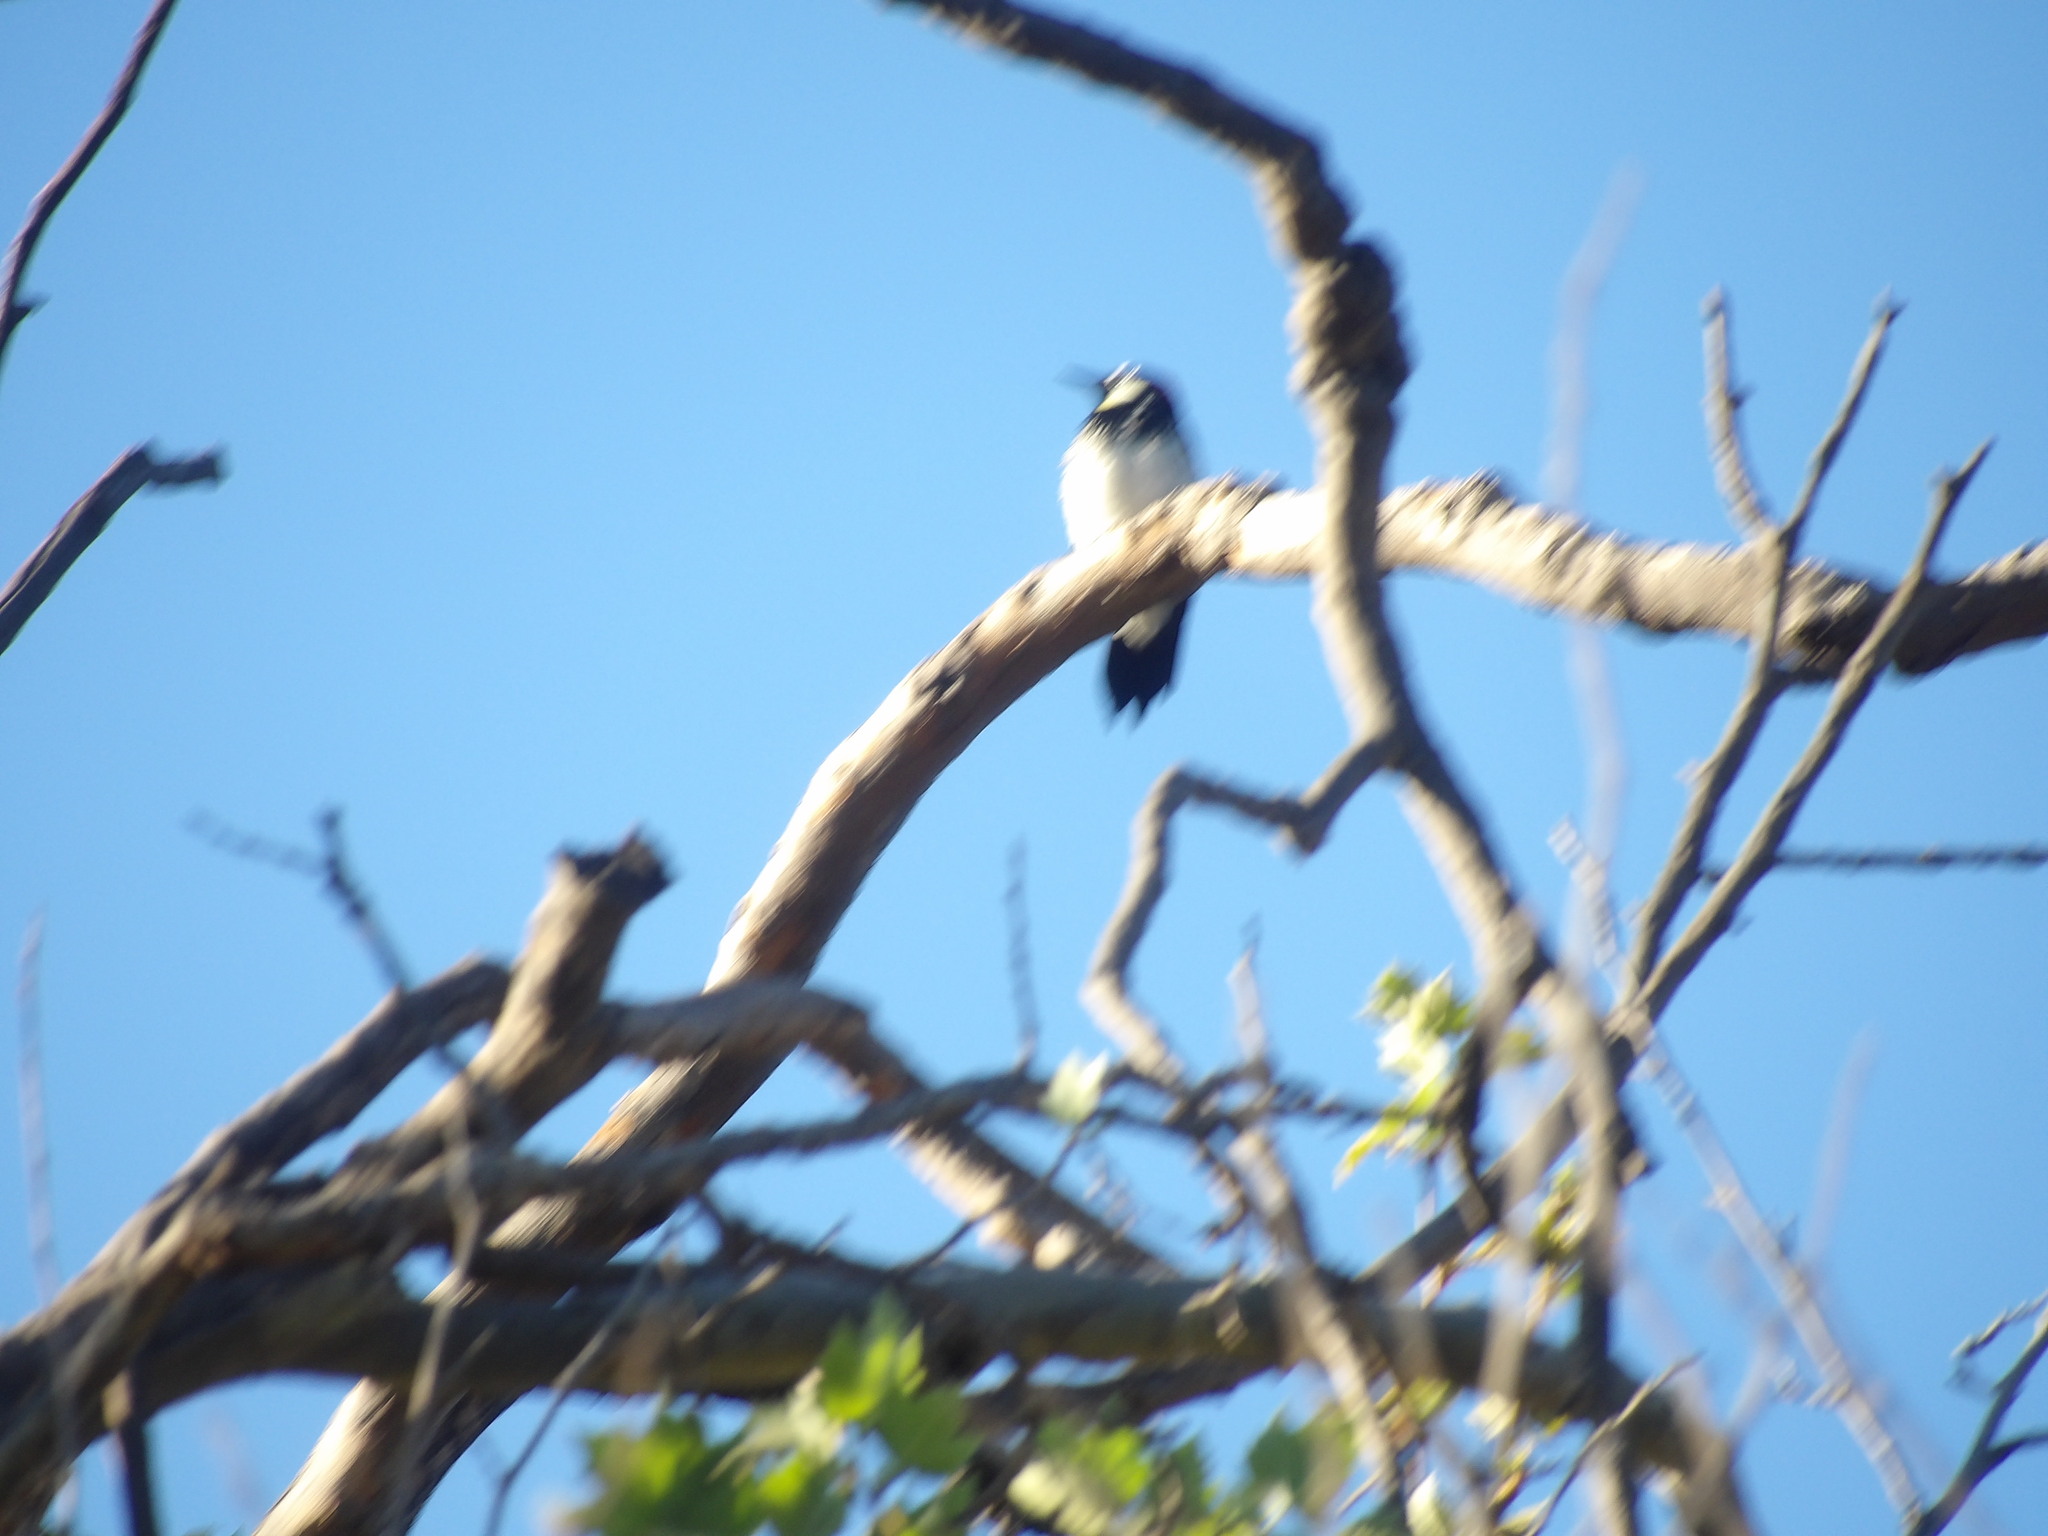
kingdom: Animalia
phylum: Chordata
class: Aves
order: Piciformes
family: Picidae
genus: Melanerpes
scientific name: Melanerpes formicivorus
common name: Acorn woodpecker
